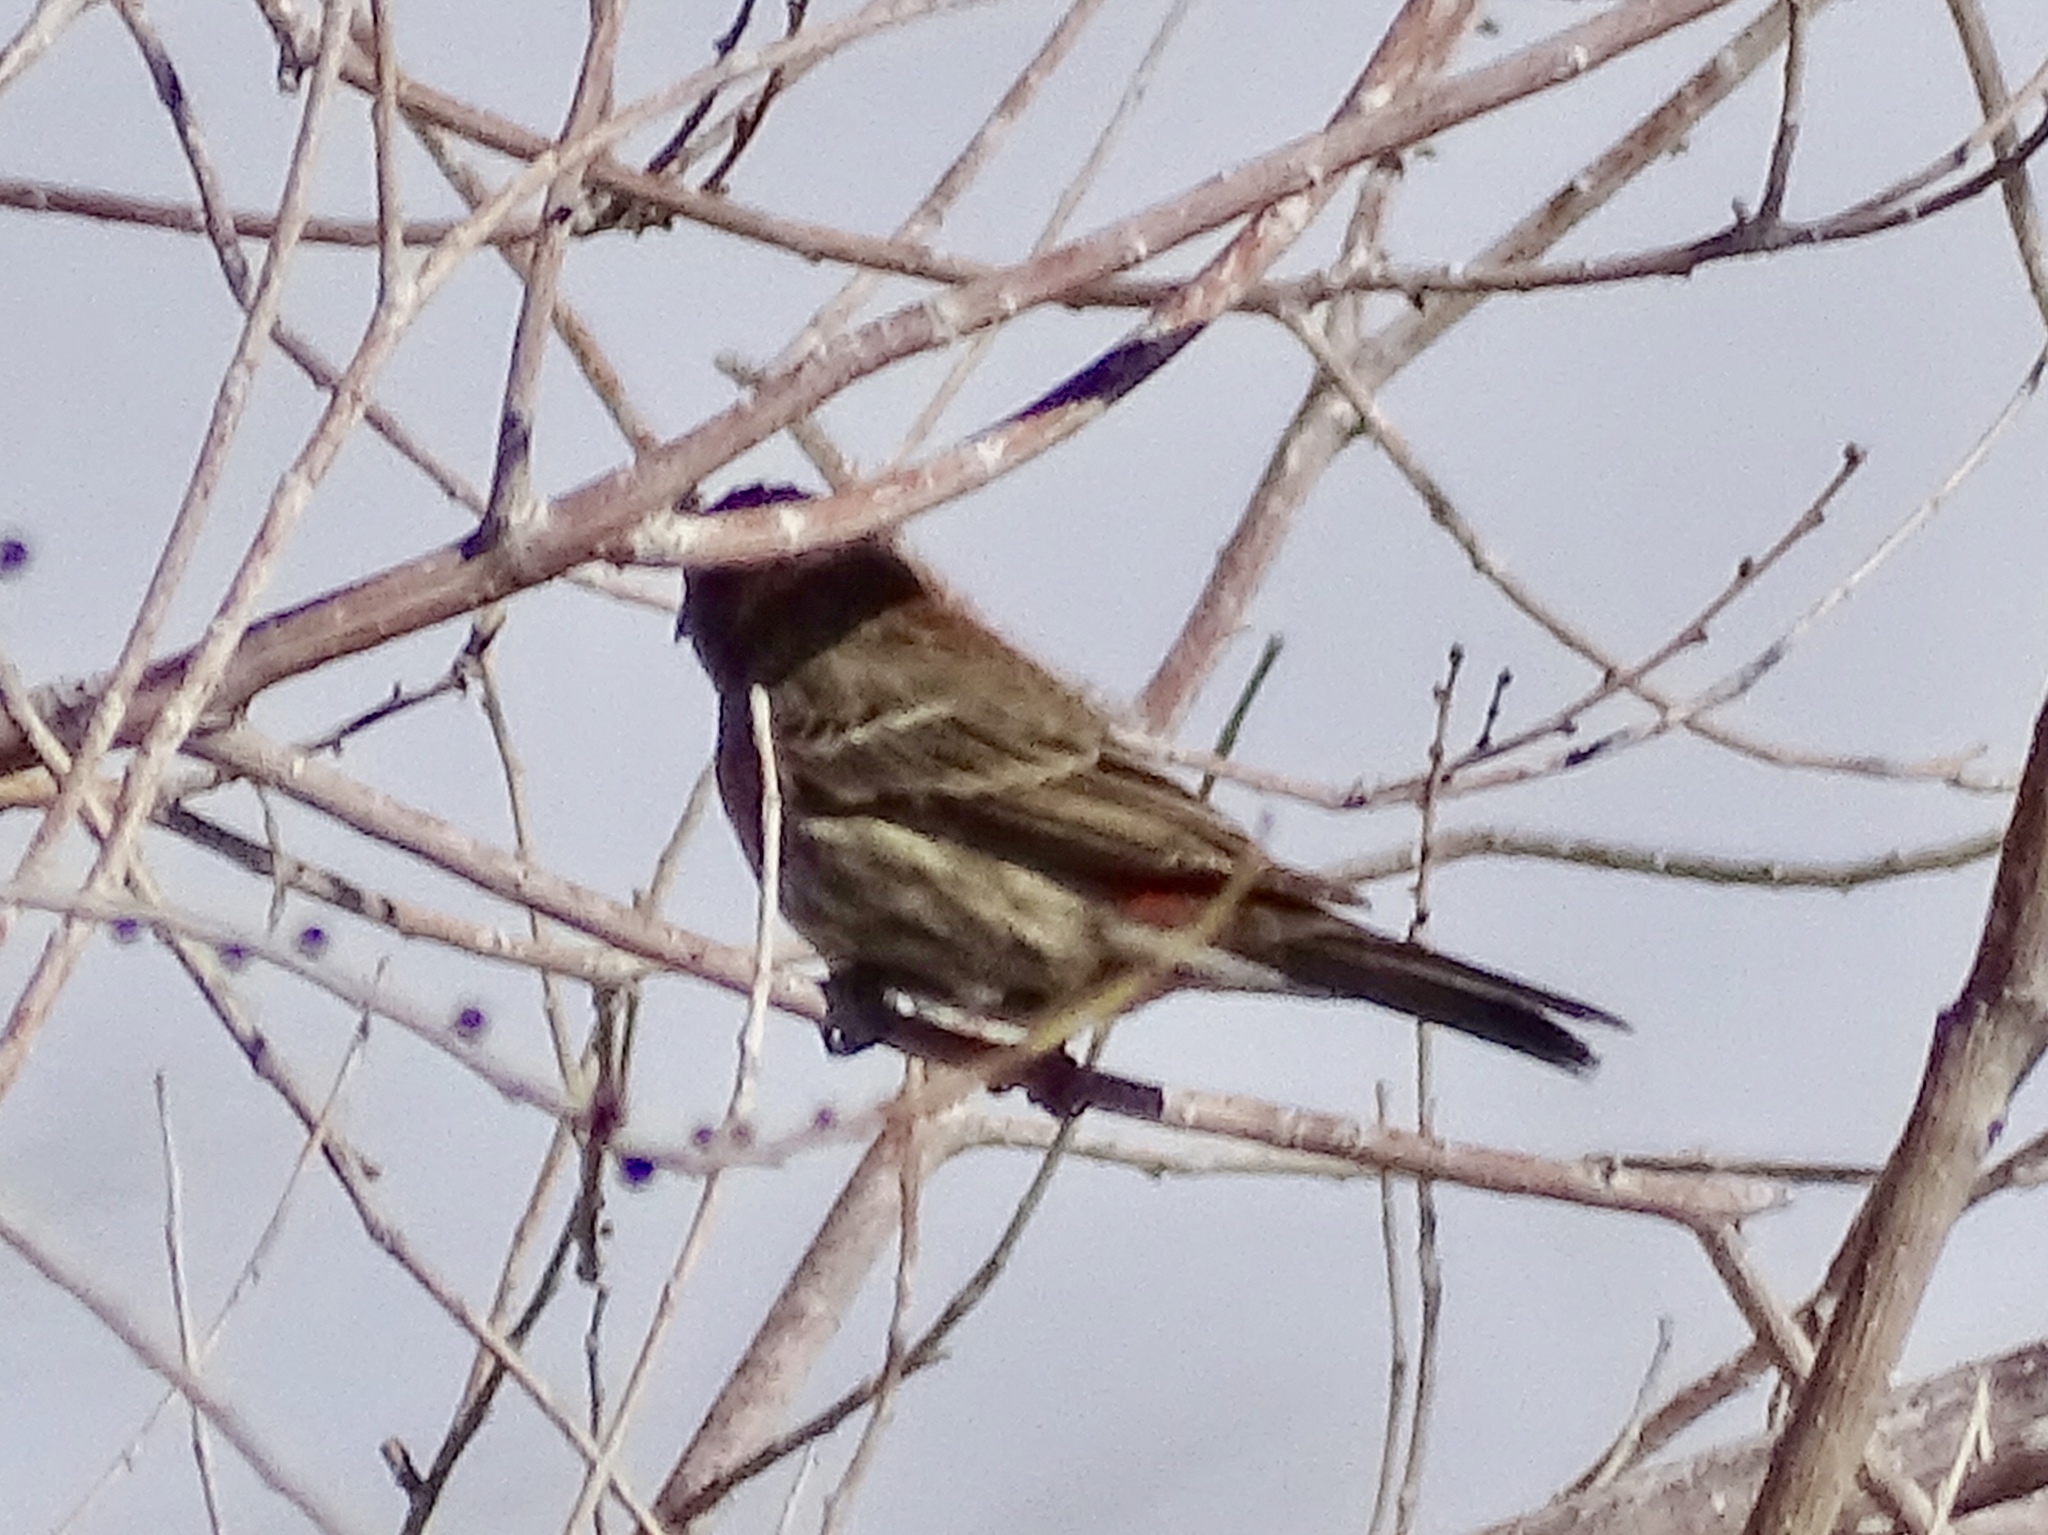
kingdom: Animalia
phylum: Chordata
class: Aves
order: Passeriformes
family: Fringillidae
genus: Haemorhous
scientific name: Haemorhous mexicanus
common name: House finch
